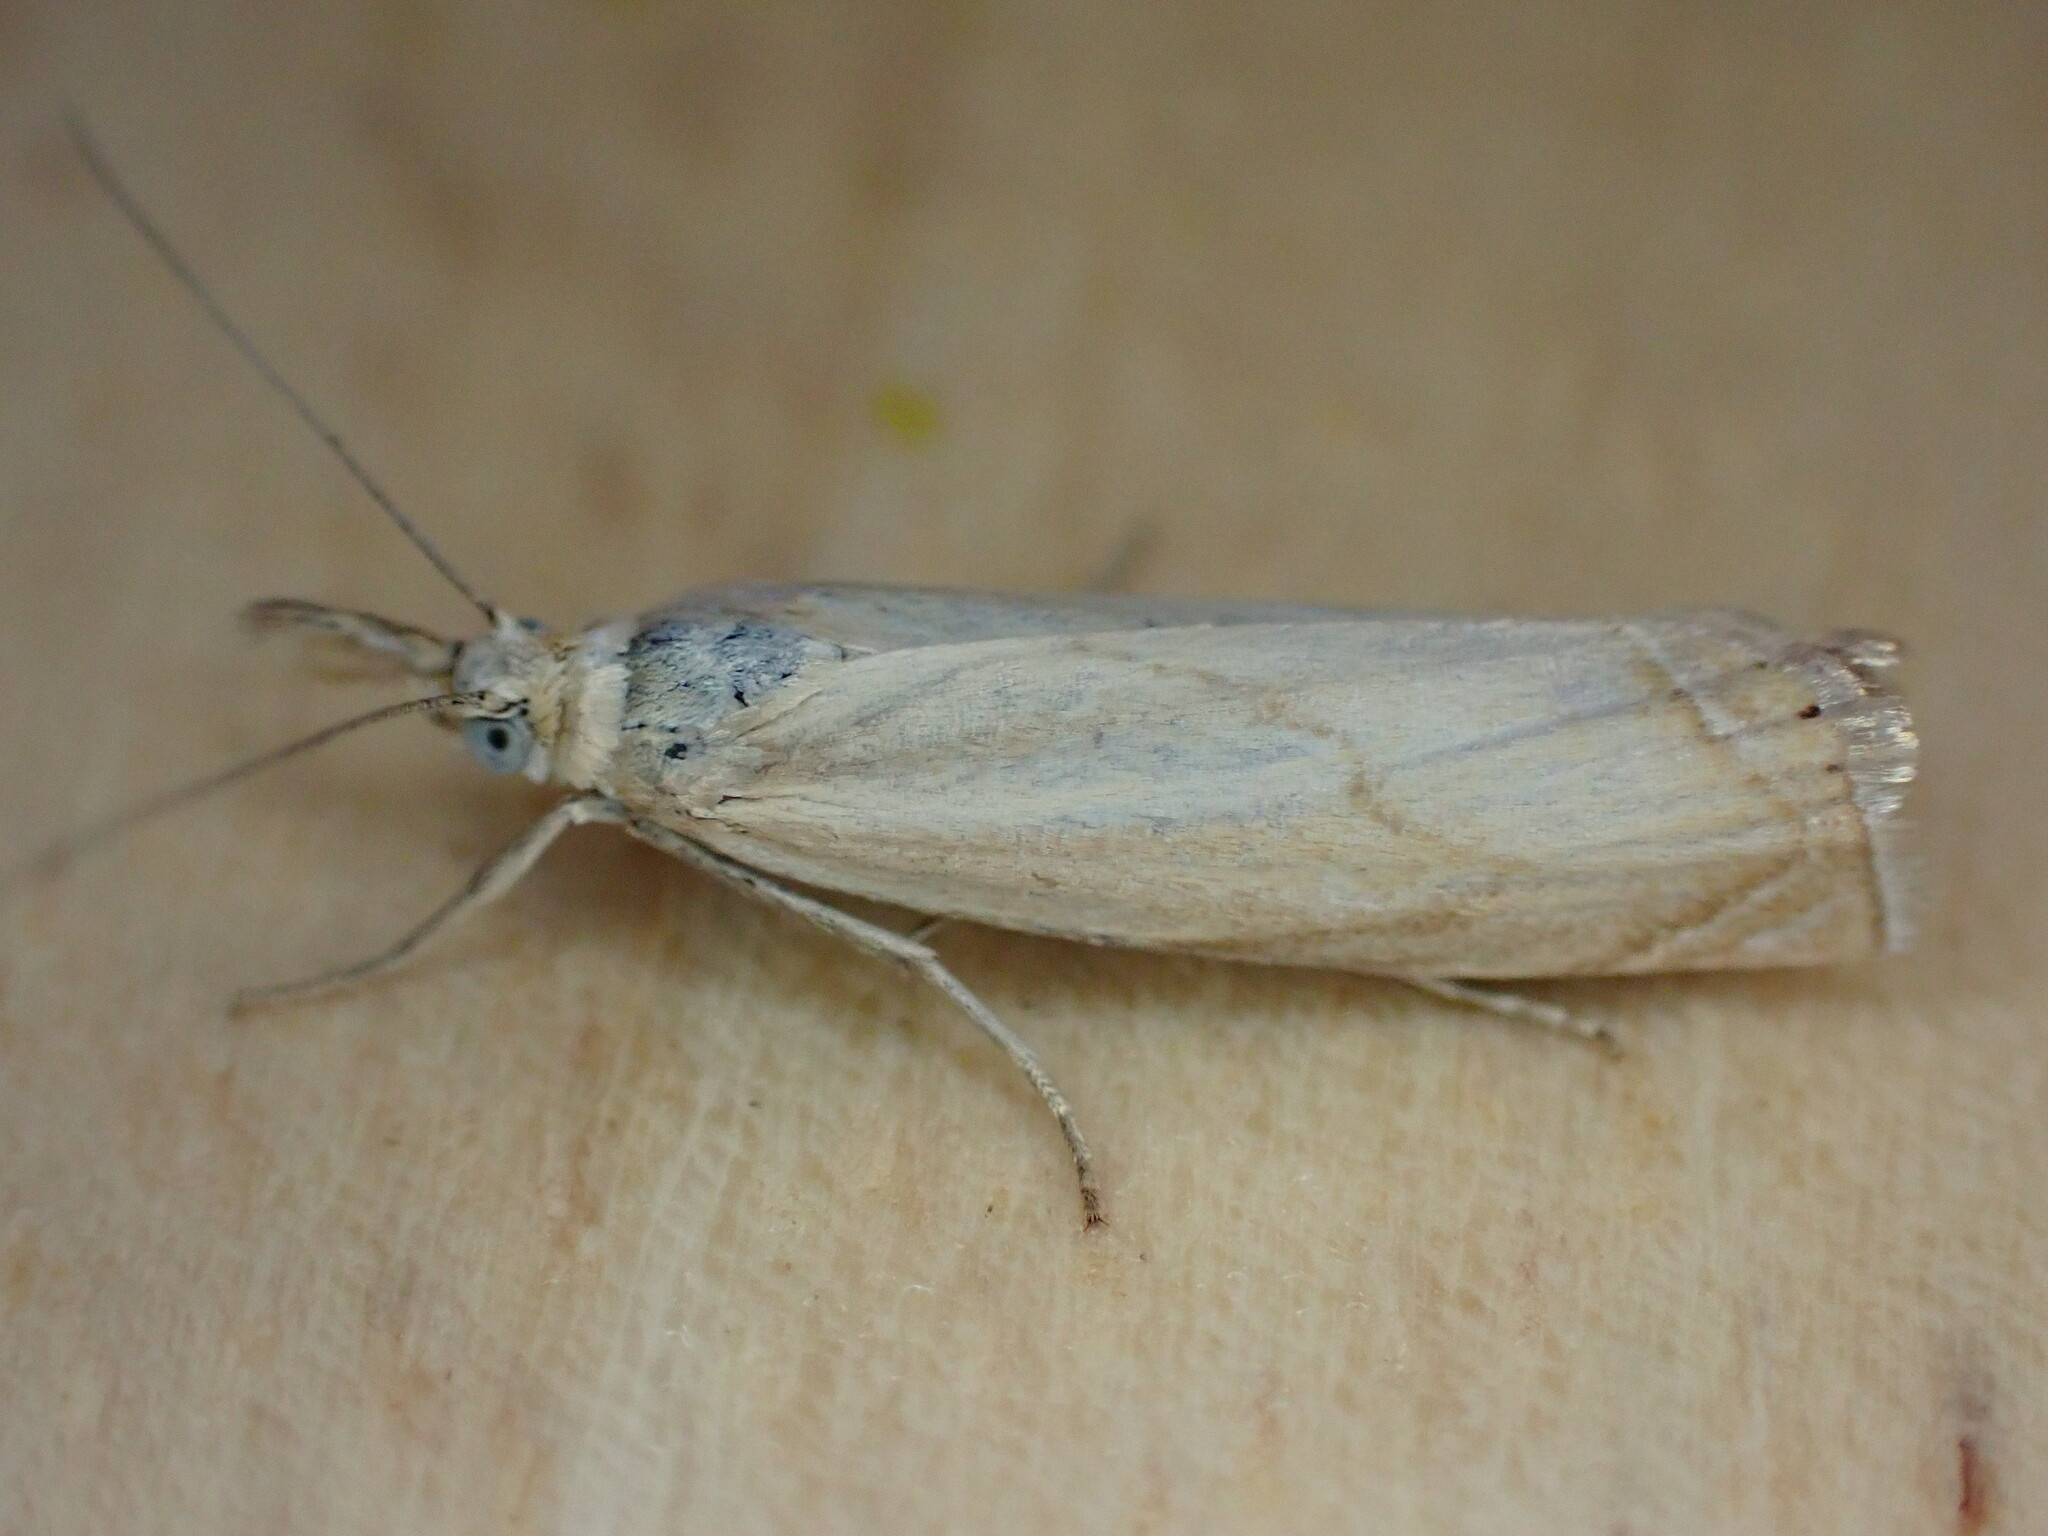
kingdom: Animalia
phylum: Arthropoda
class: Insecta
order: Lepidoptera
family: Crambidae
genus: Chrysoteuchia
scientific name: Chrysoteuchia culmella
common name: Garden grass-veneer
